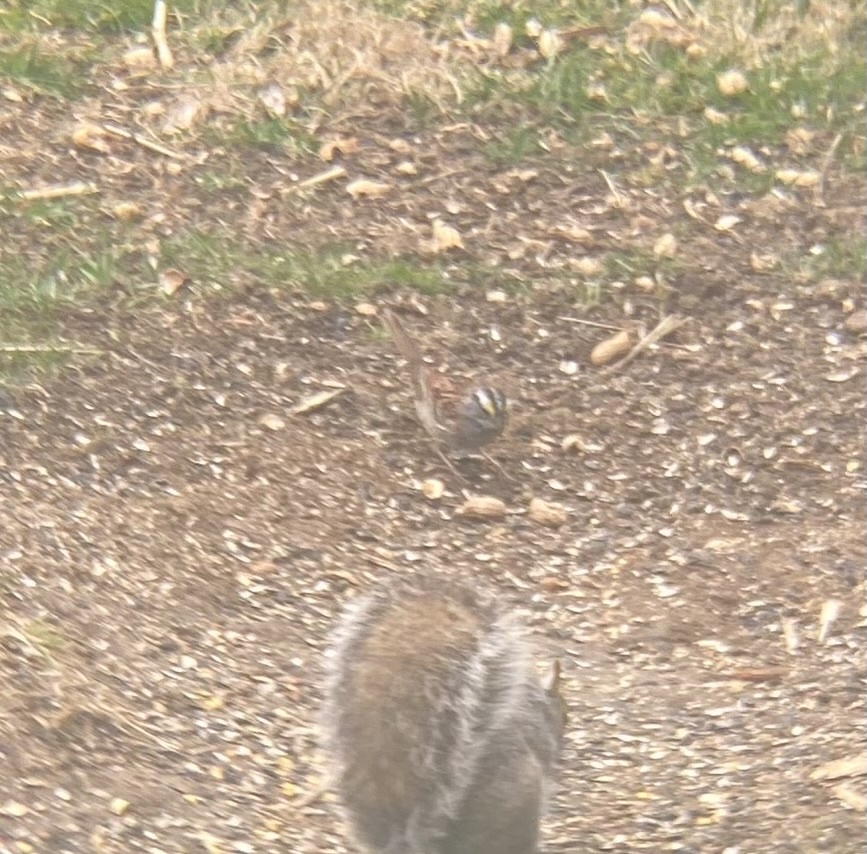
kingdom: Animalia
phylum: Chordata
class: Aves
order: Passeriformes
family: Passerellidae
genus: Zonotrichia
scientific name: Zonotrichia albicollis
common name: White-throated sparrow
